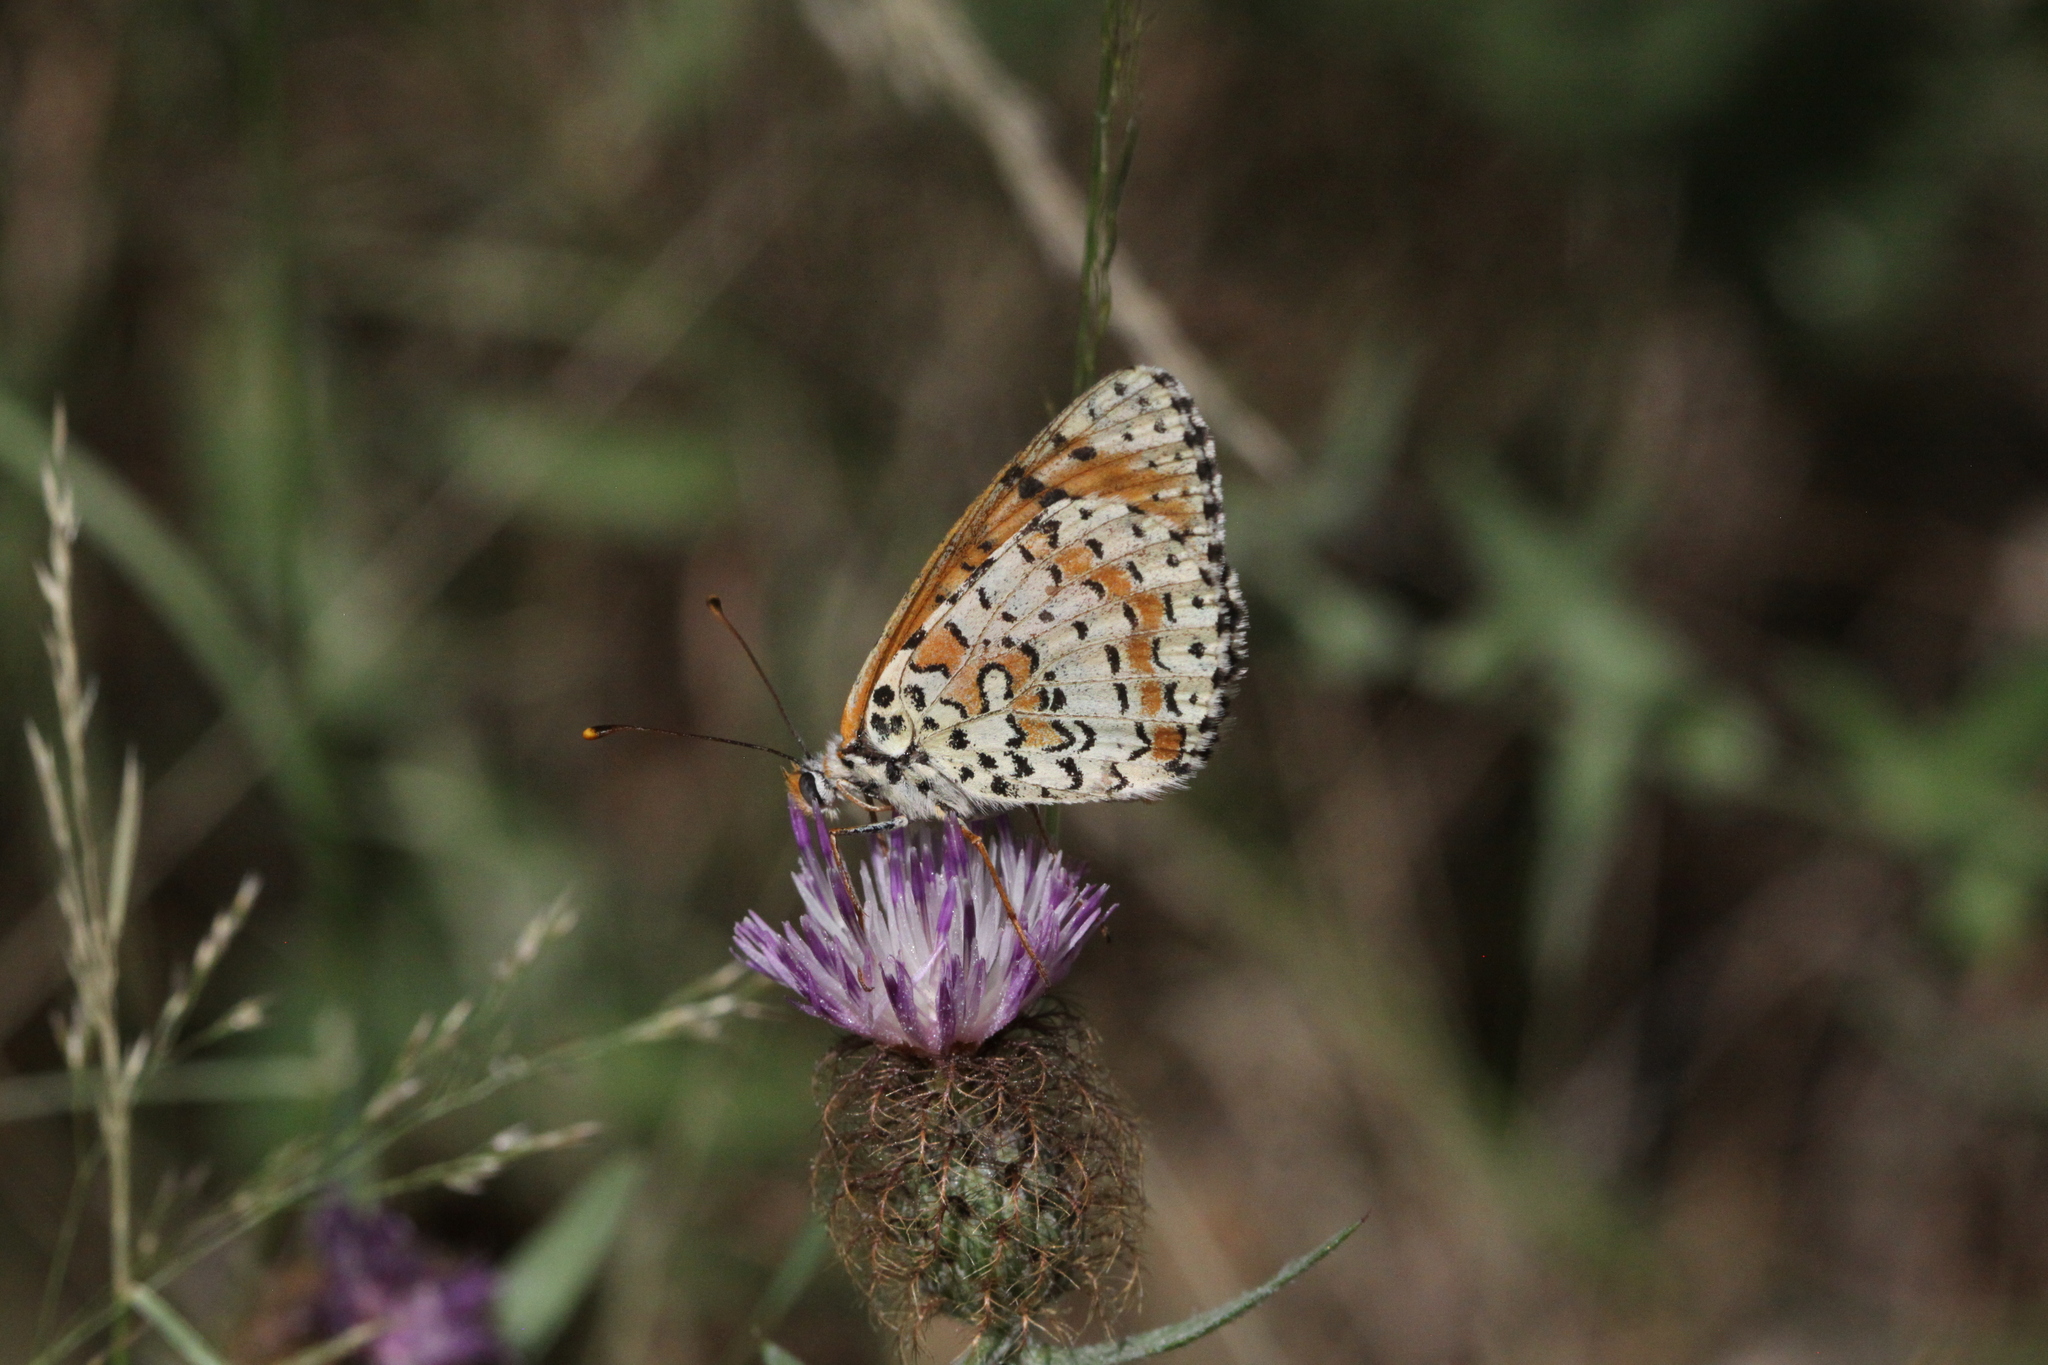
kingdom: Animalia
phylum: Arthropoda
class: Insecta
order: Lepidoptera
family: Nymphalidae
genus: Melitaea
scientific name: Melitaea didyma
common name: Spotted fritillary
